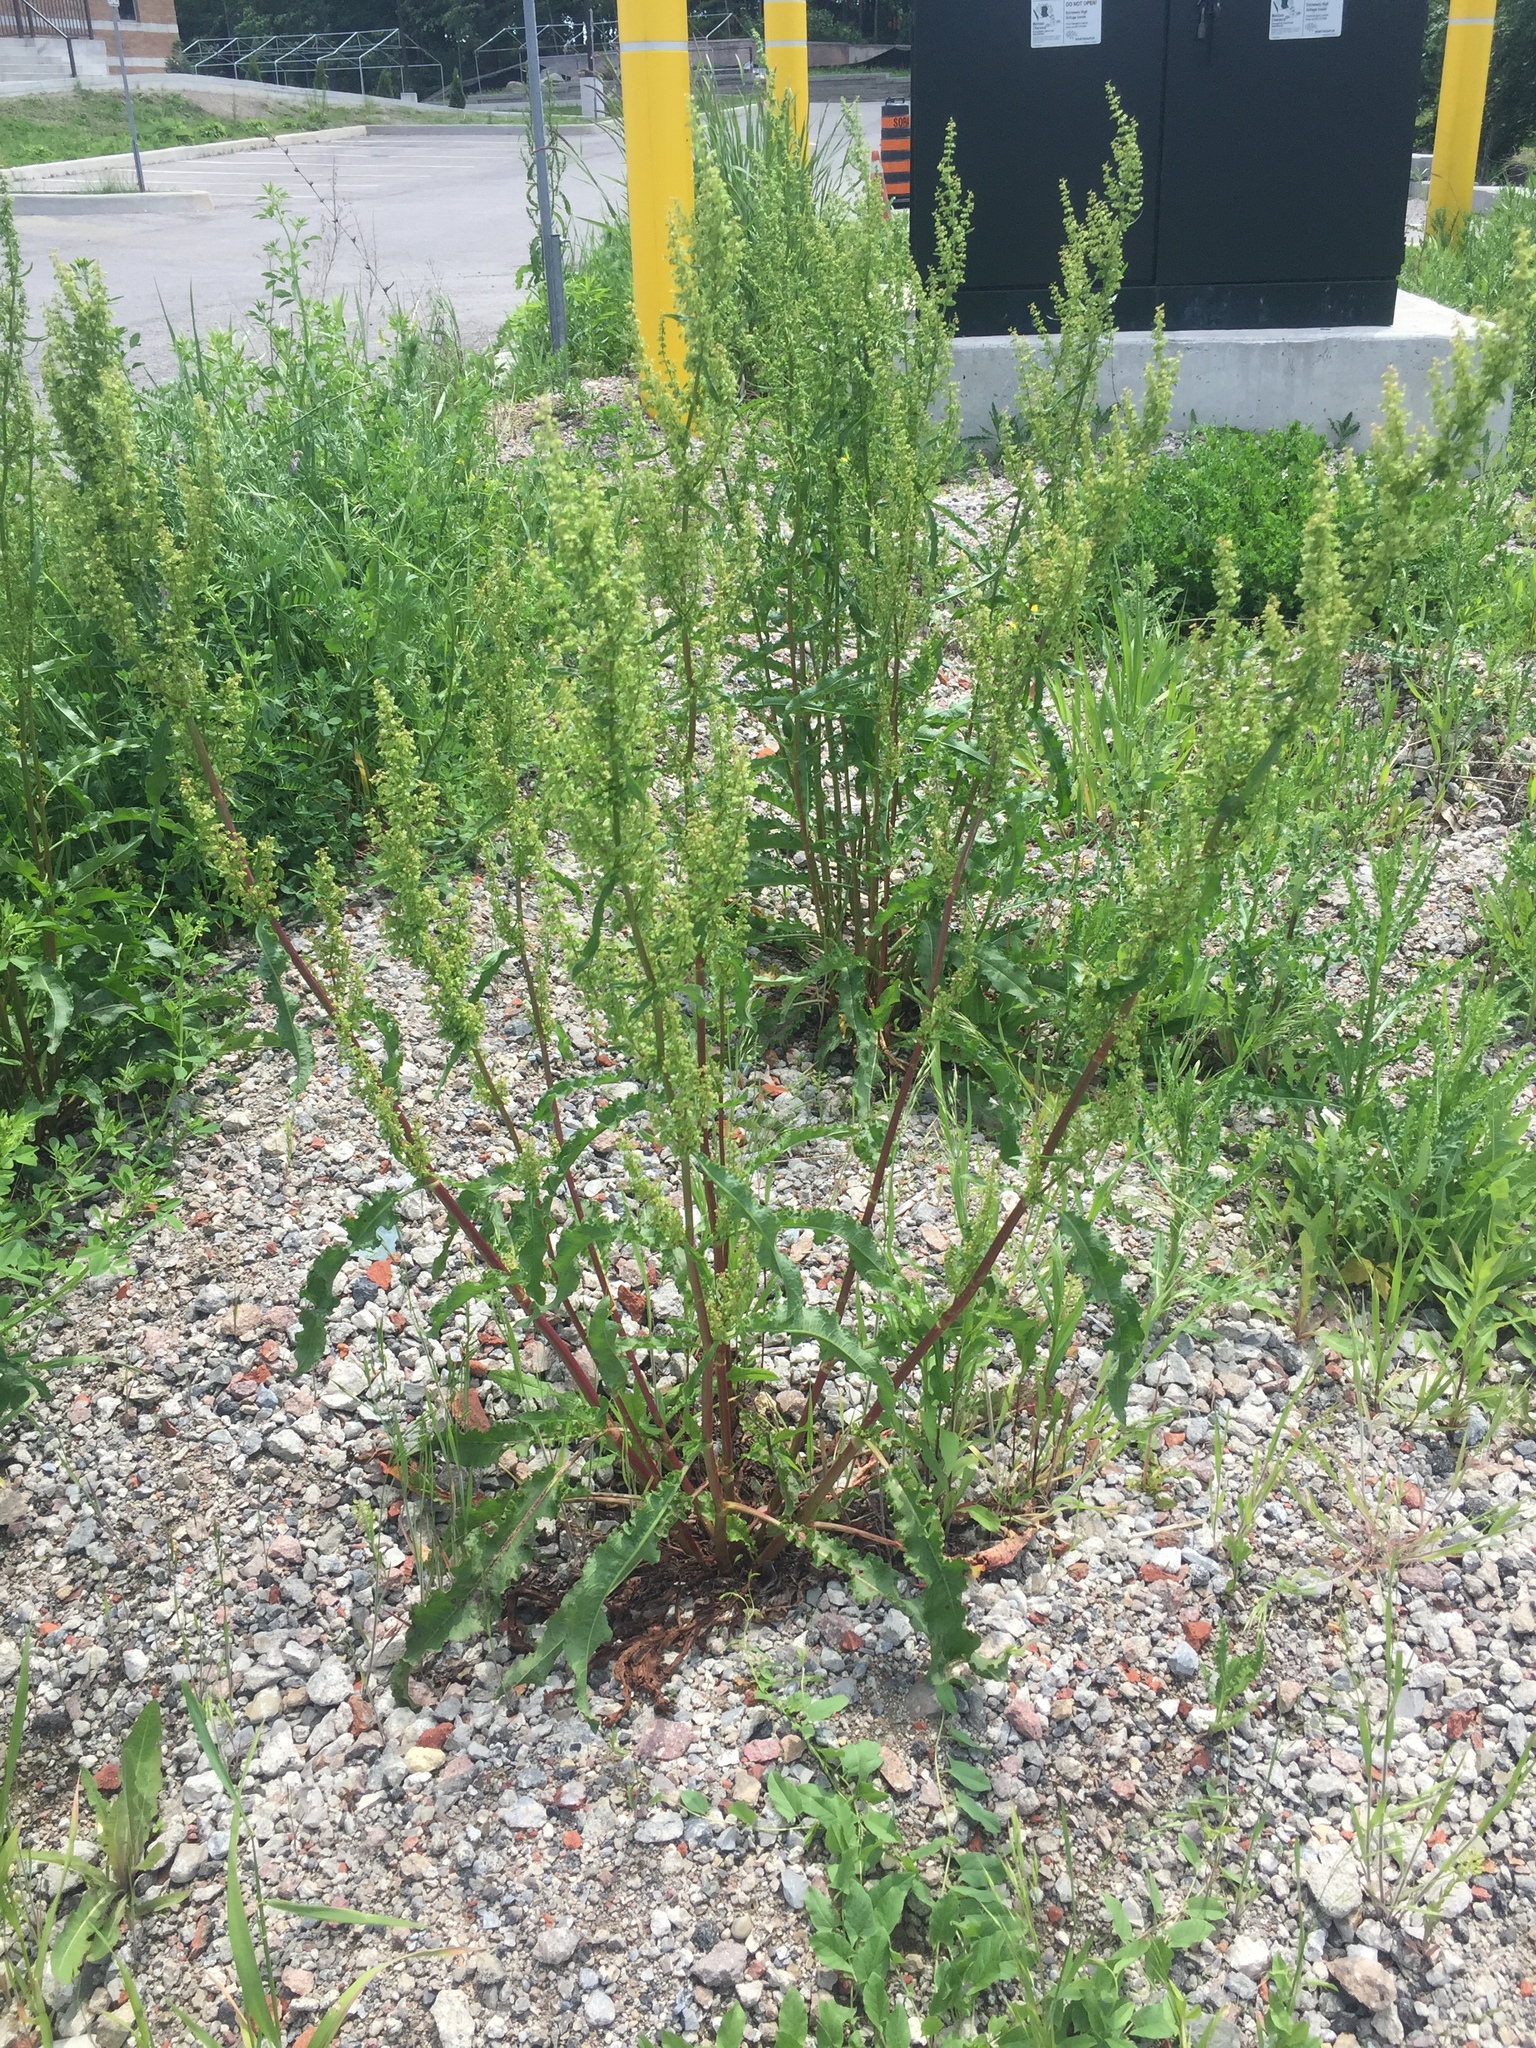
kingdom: Plantae
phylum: Tracheophyta
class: Magnoliopsida
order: Caryophyllales
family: Polygonaceae
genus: Rumex
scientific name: Rumex crispus
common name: Curled dock
